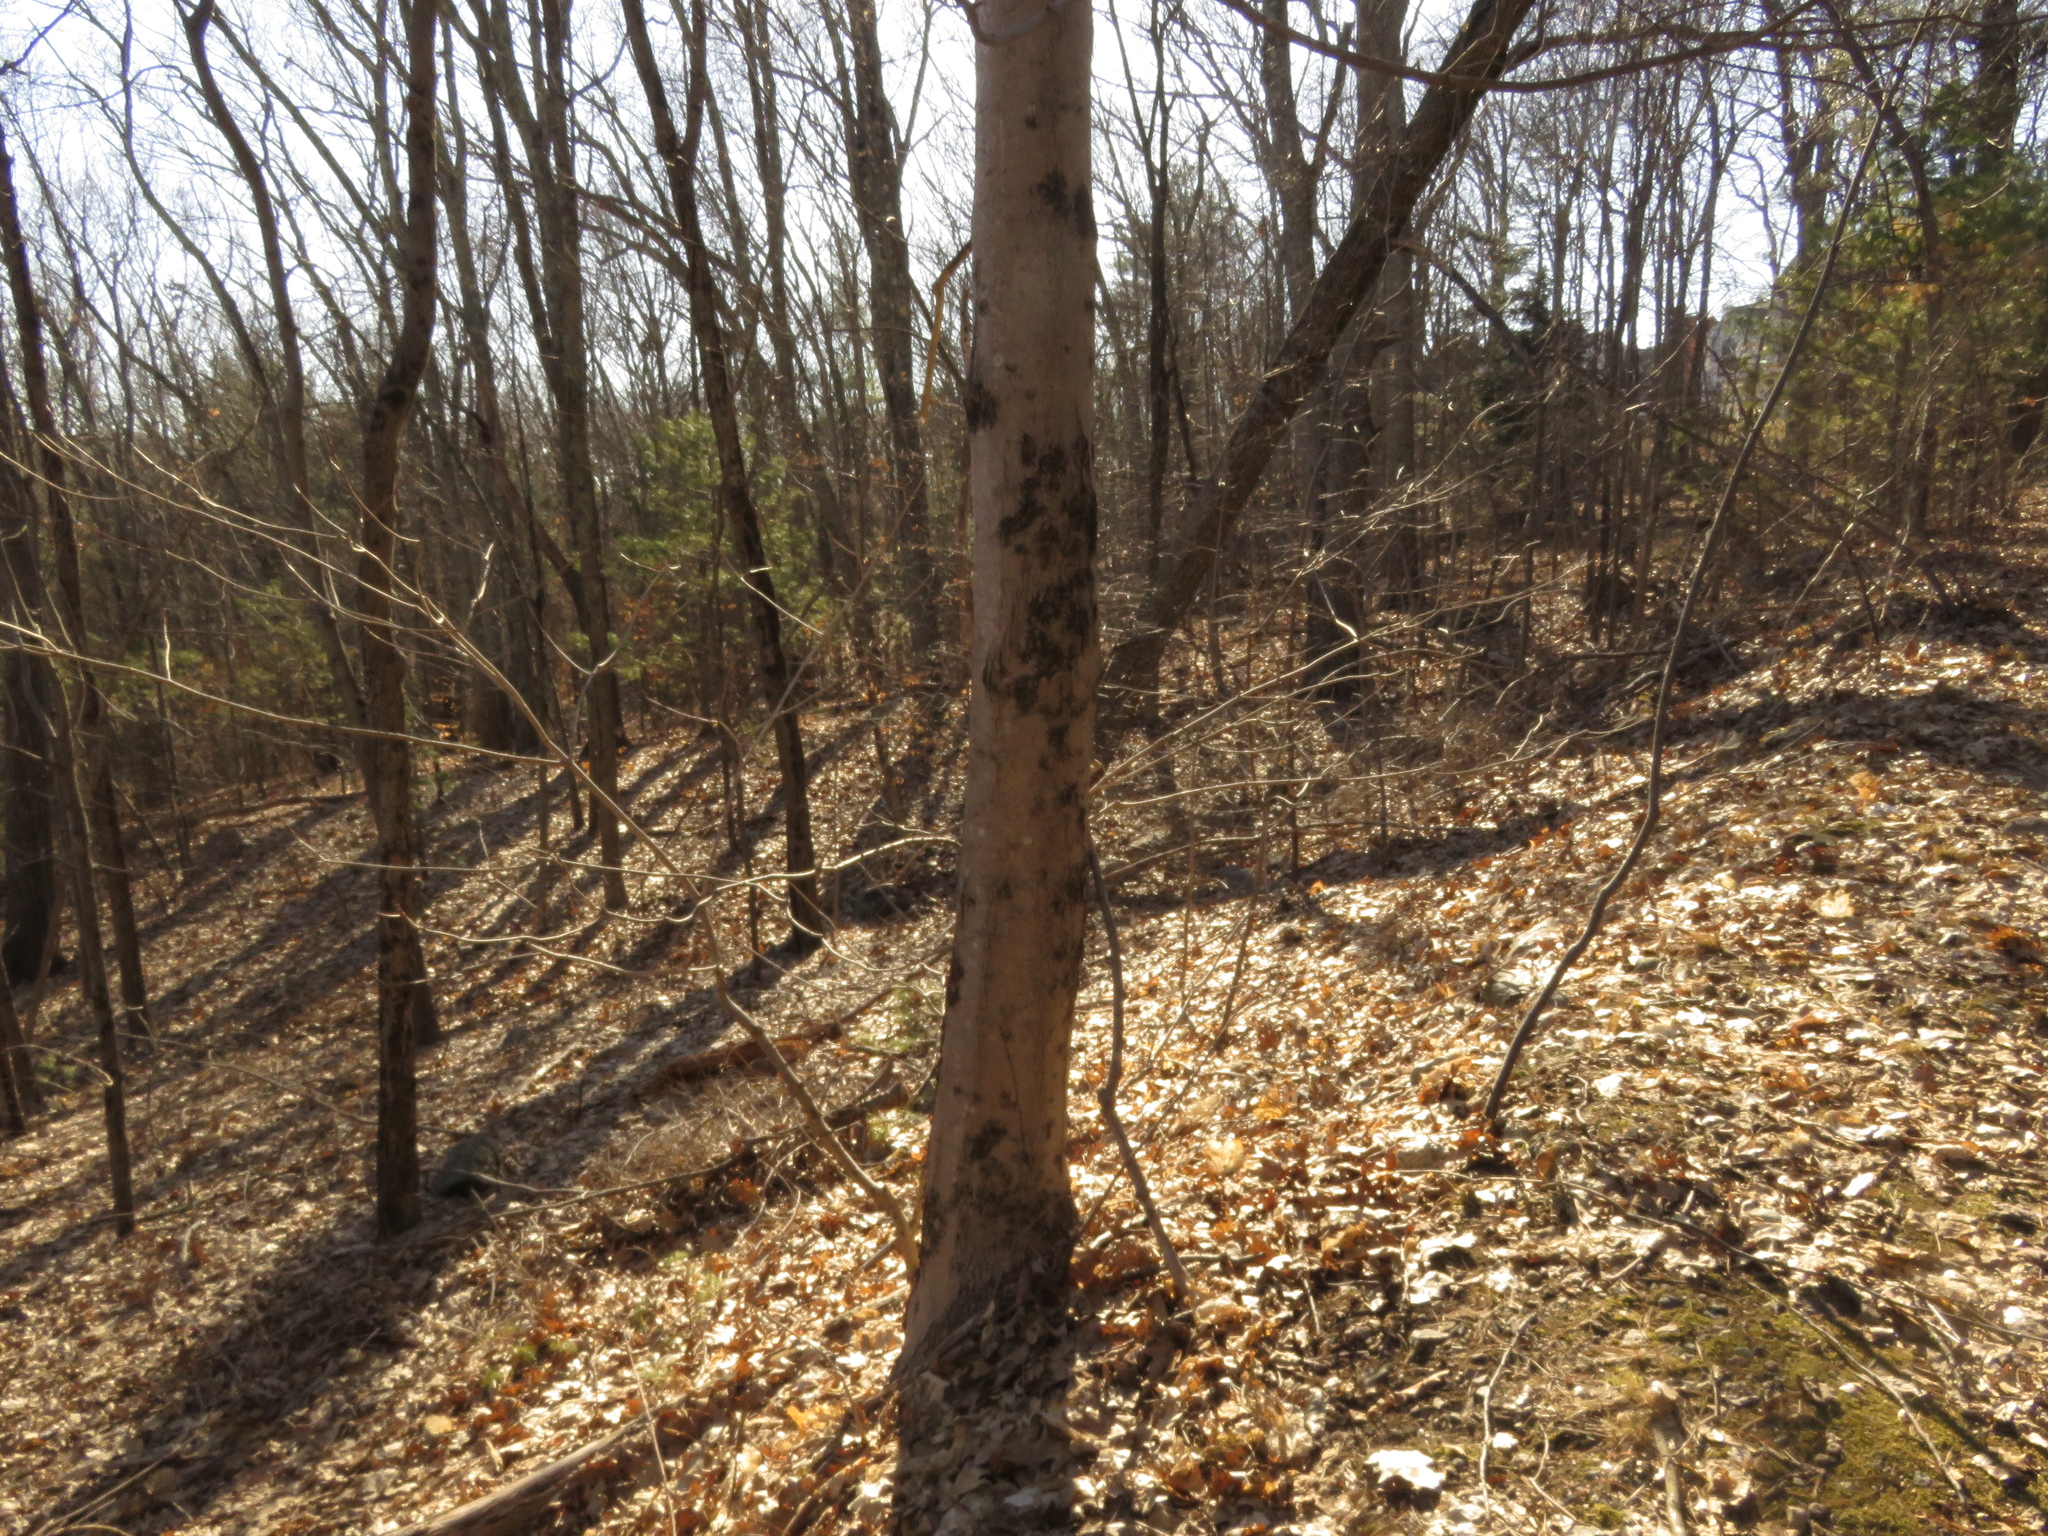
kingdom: Plantae
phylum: Tracheophyta
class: Magnoliopsida
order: Sapindales
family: Sapindaceae
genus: Acer
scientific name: Acer saccharum
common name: Sugar maple
